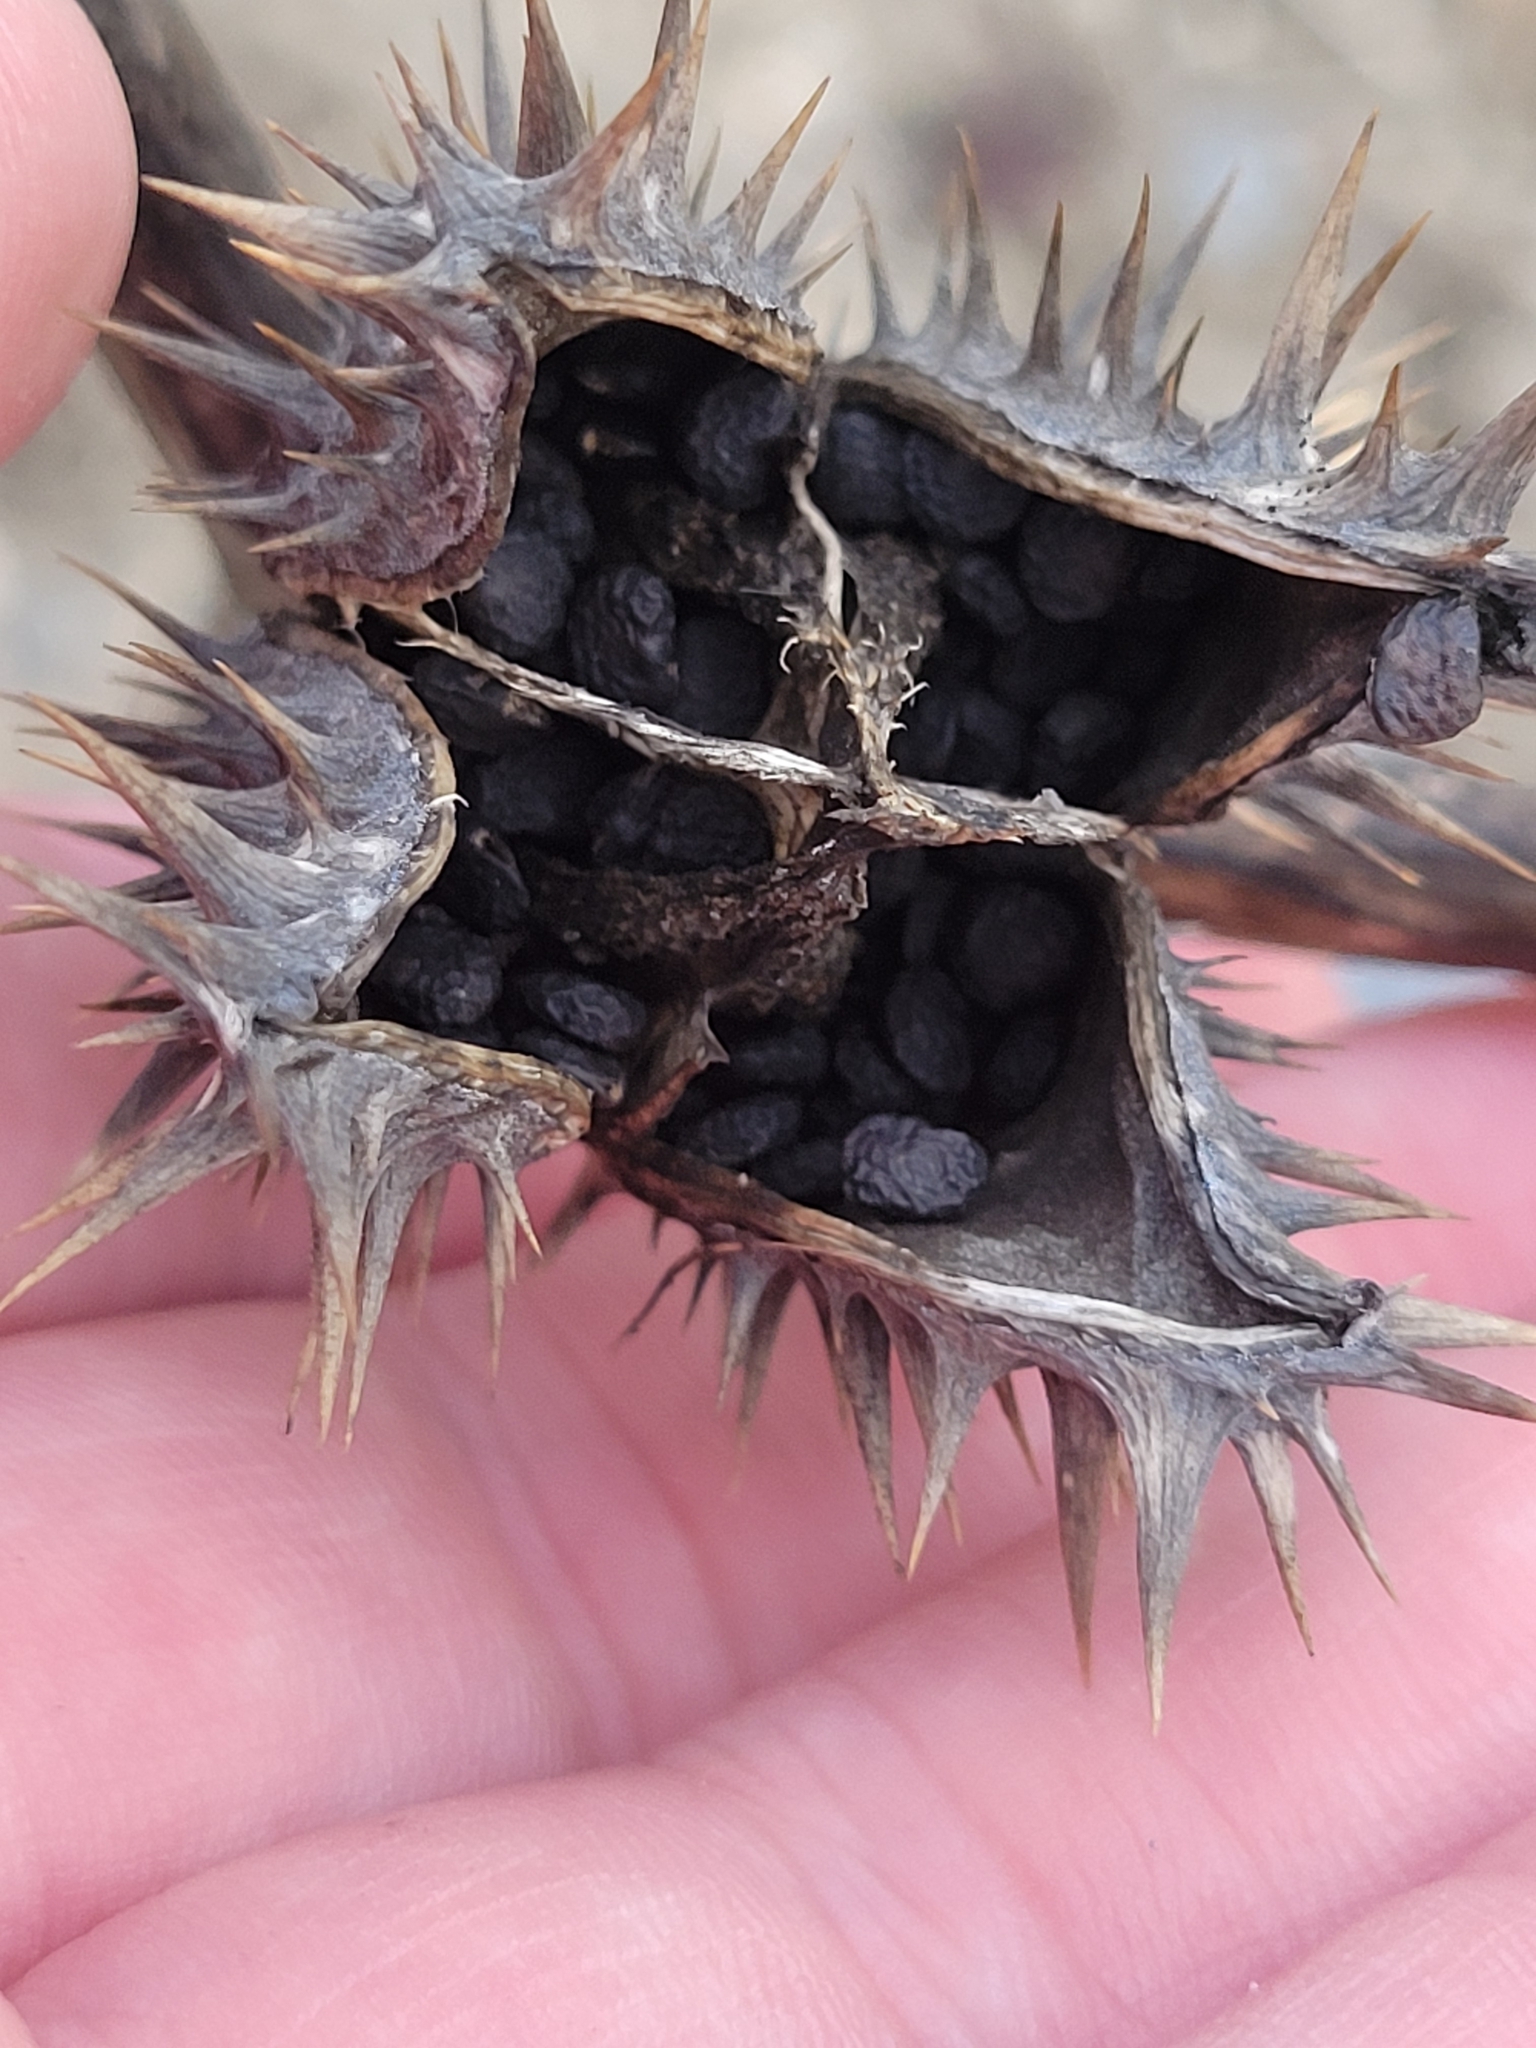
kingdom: Plantae
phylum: Tracheophyta
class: Magnoliopsida
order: Solanales
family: Solanaceae
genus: Datura
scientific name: Datura stramonium
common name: Thorn-apple
